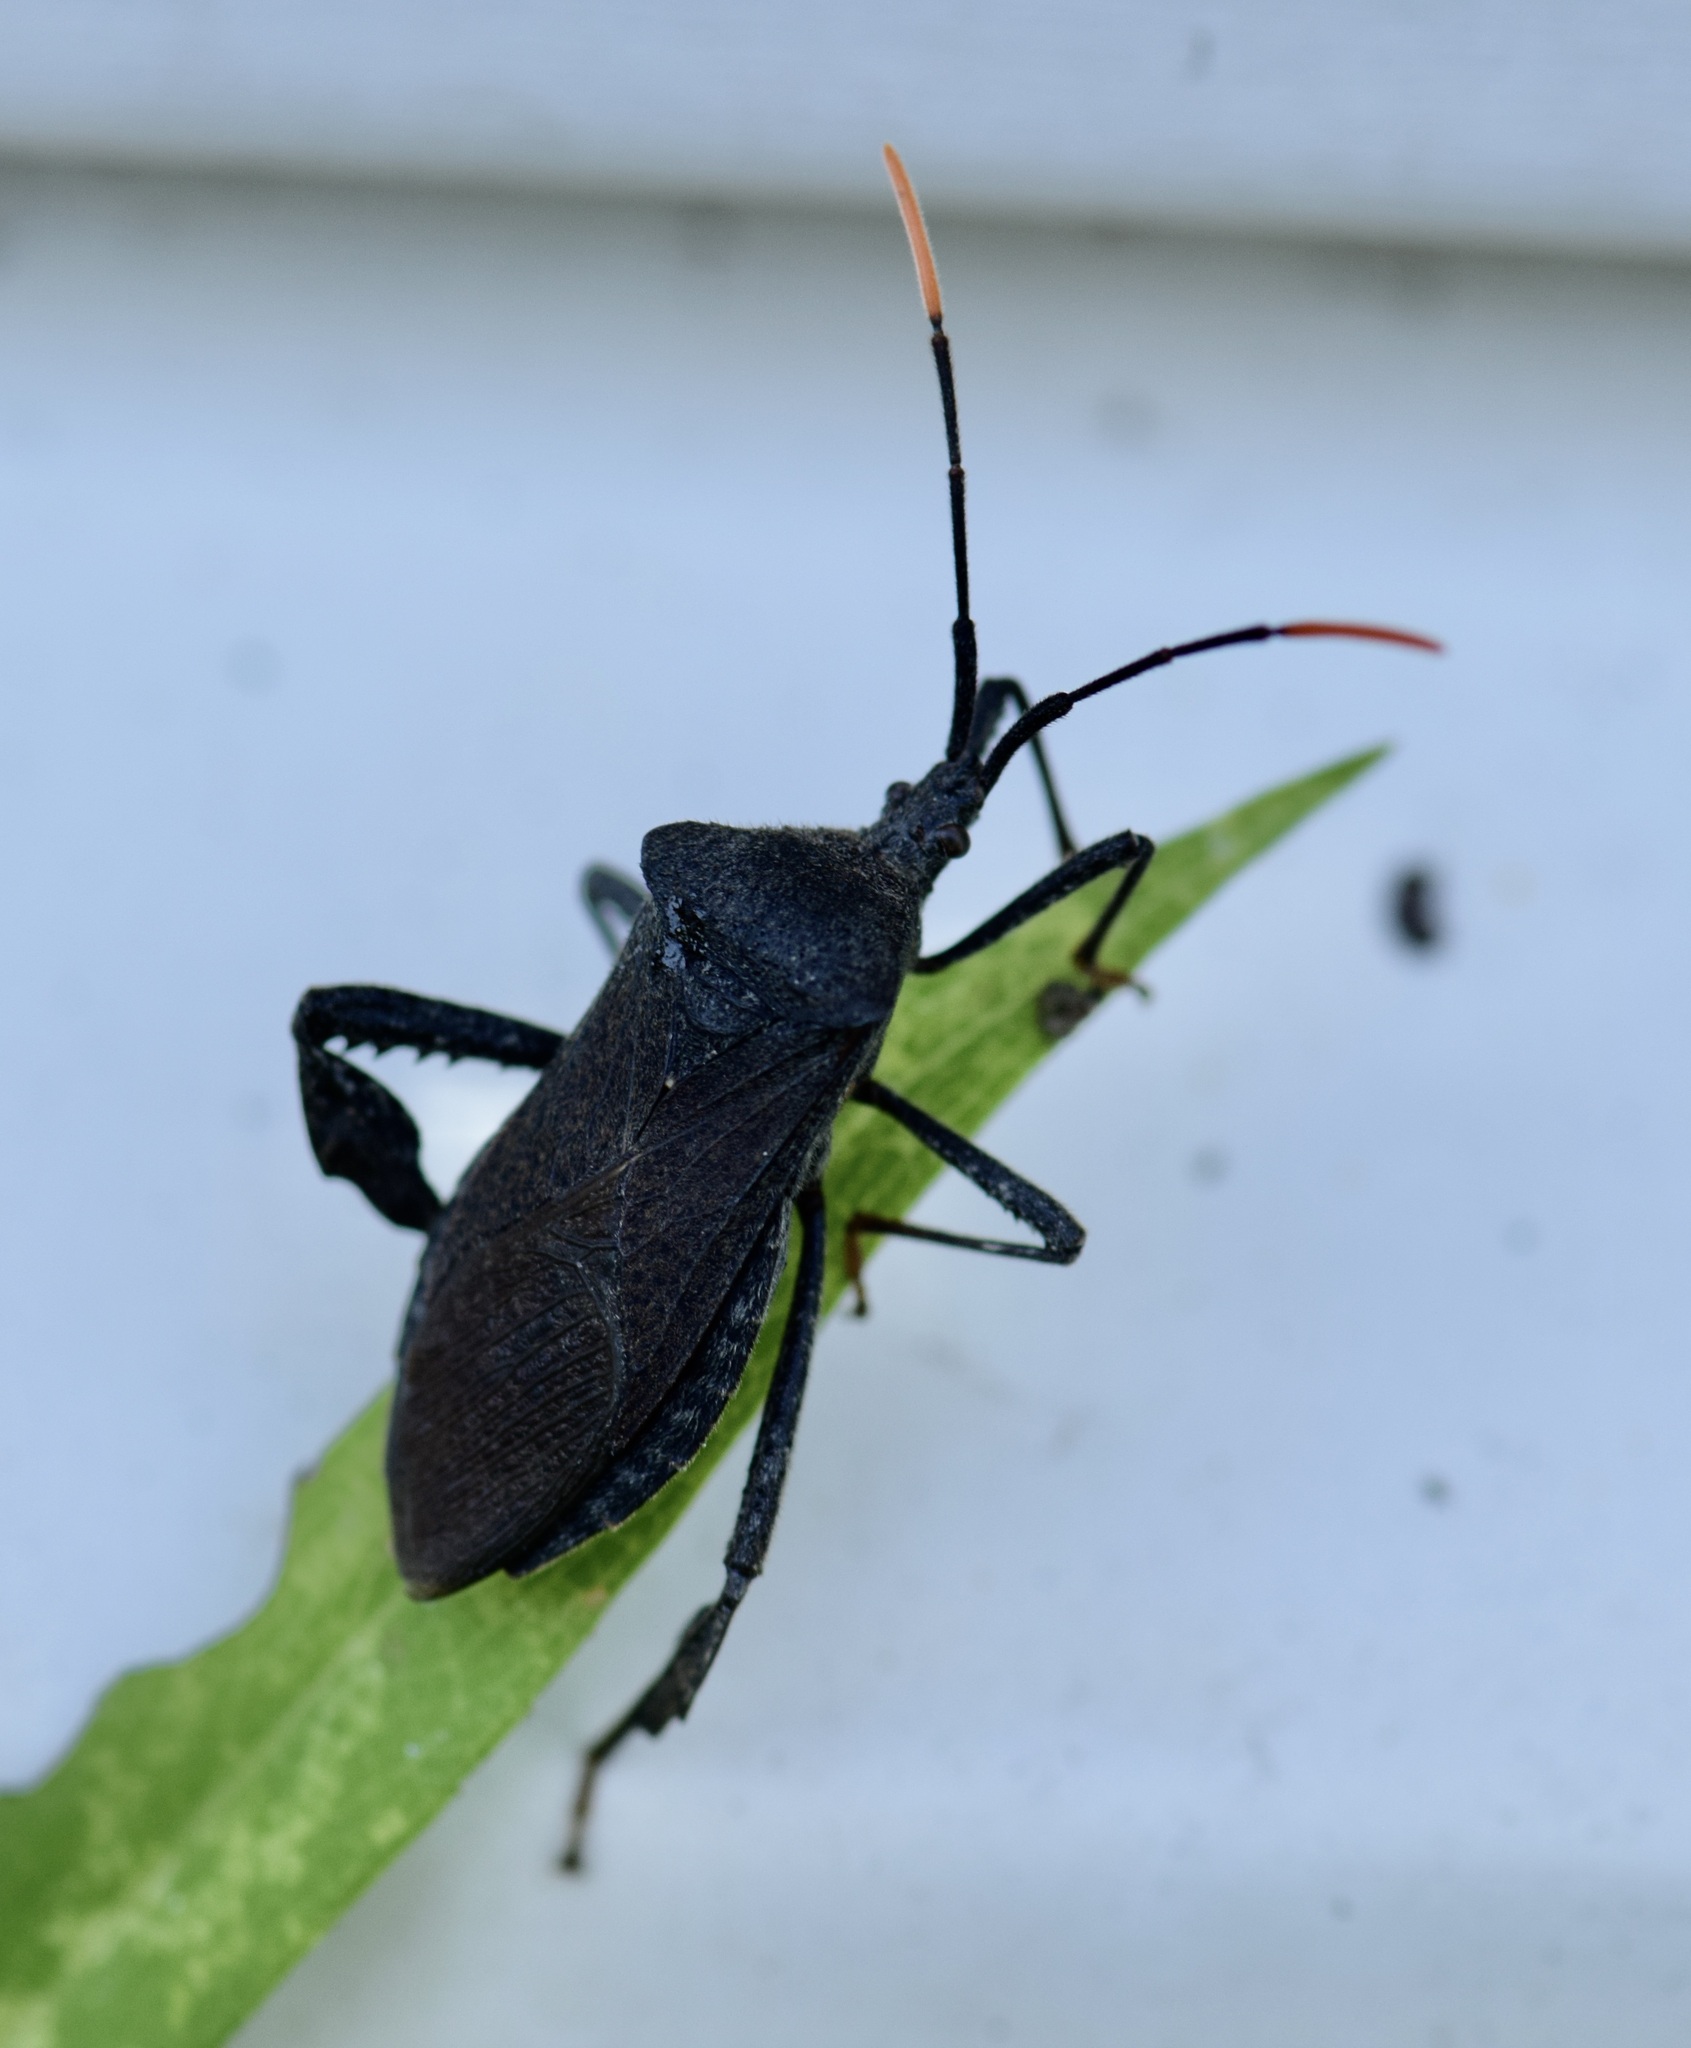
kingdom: Animalia
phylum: Arthropoda
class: Insecta
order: Hemiptera
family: Coreidae
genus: Acanthocephala
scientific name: Acanthocephala terminalis
